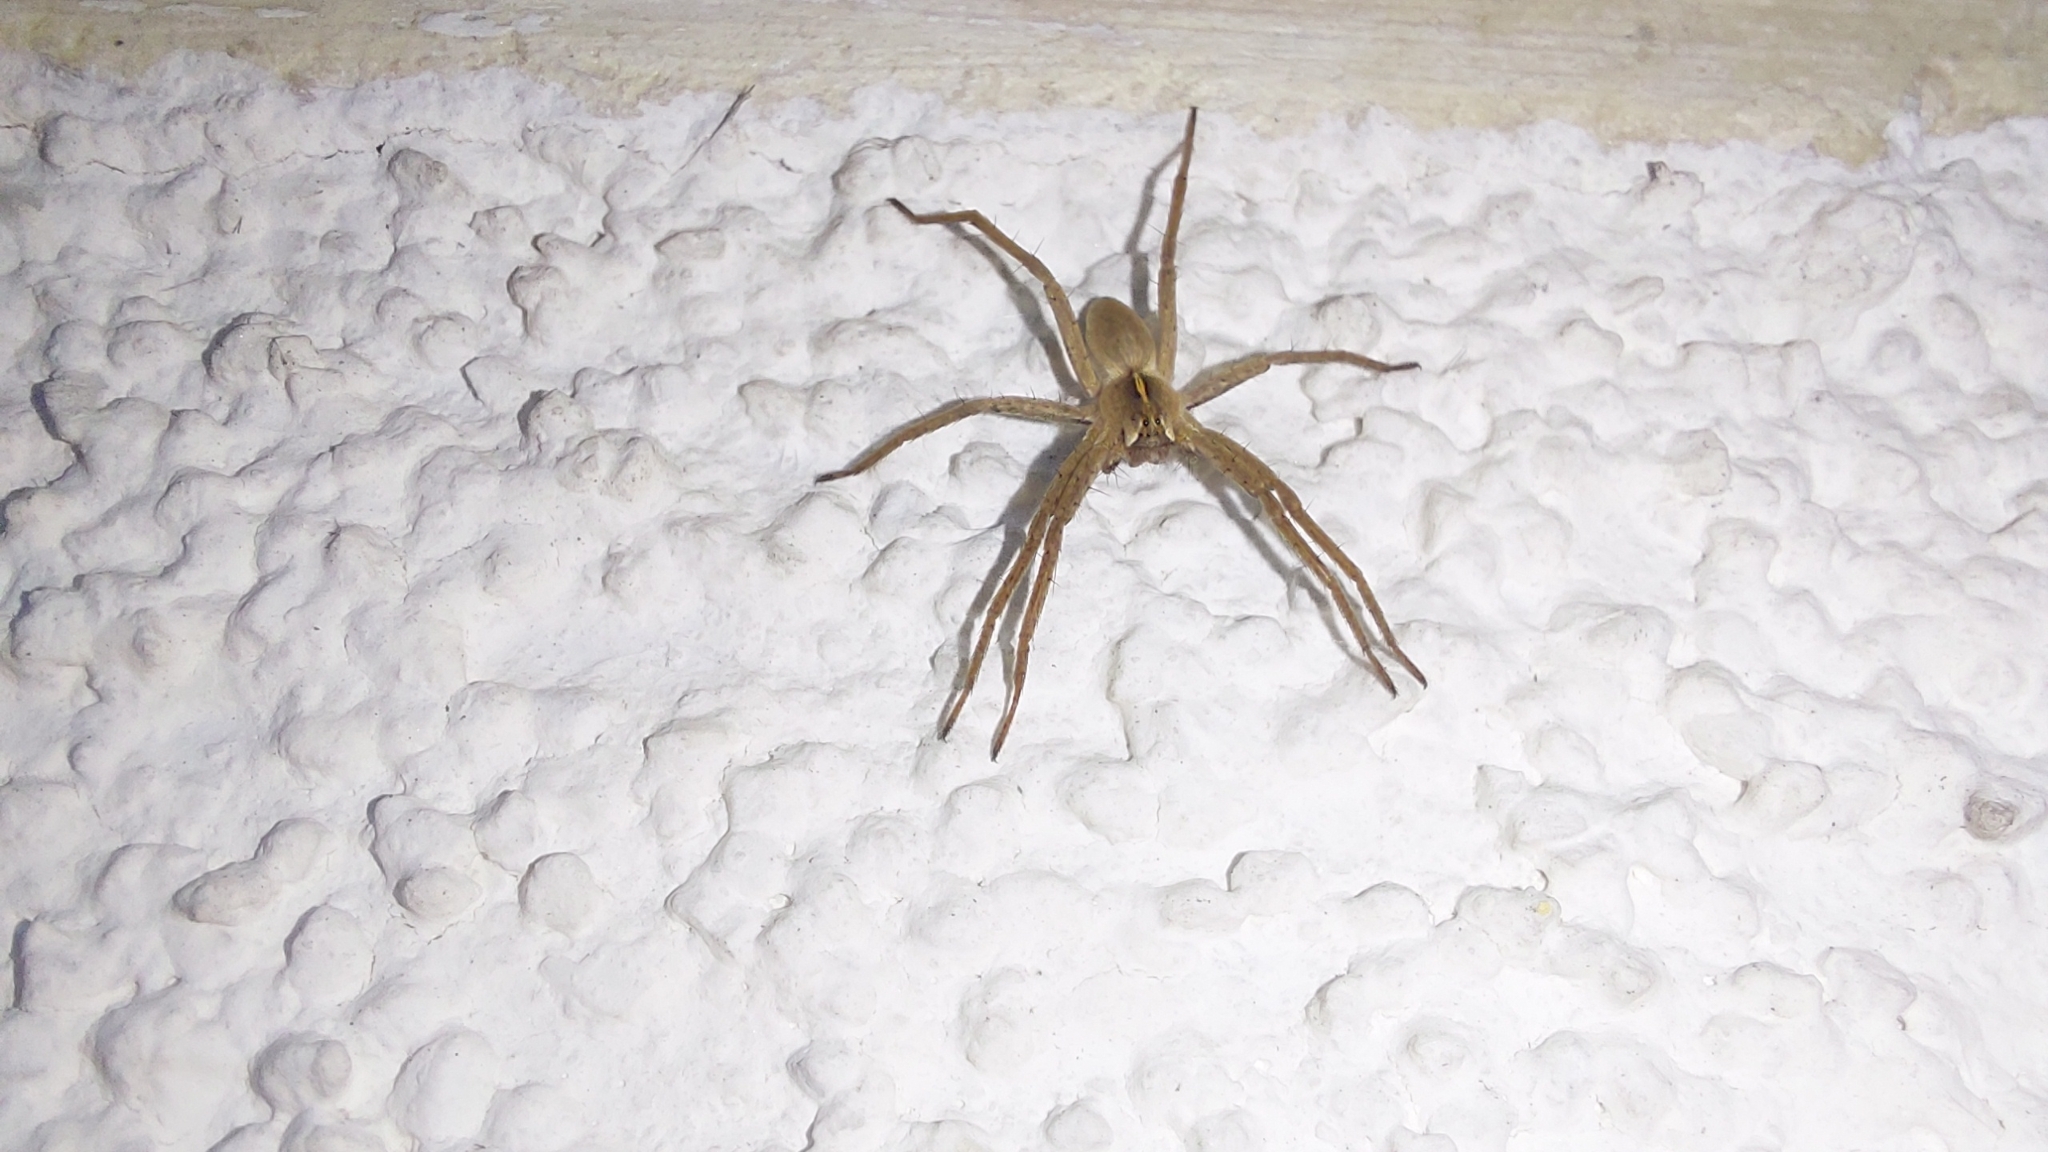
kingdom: Animalia
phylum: Arthropoda
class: Arachnida
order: Araneae
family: Pisauridae
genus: Pisaura
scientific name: Pisaura mirabilis
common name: Tent spider
